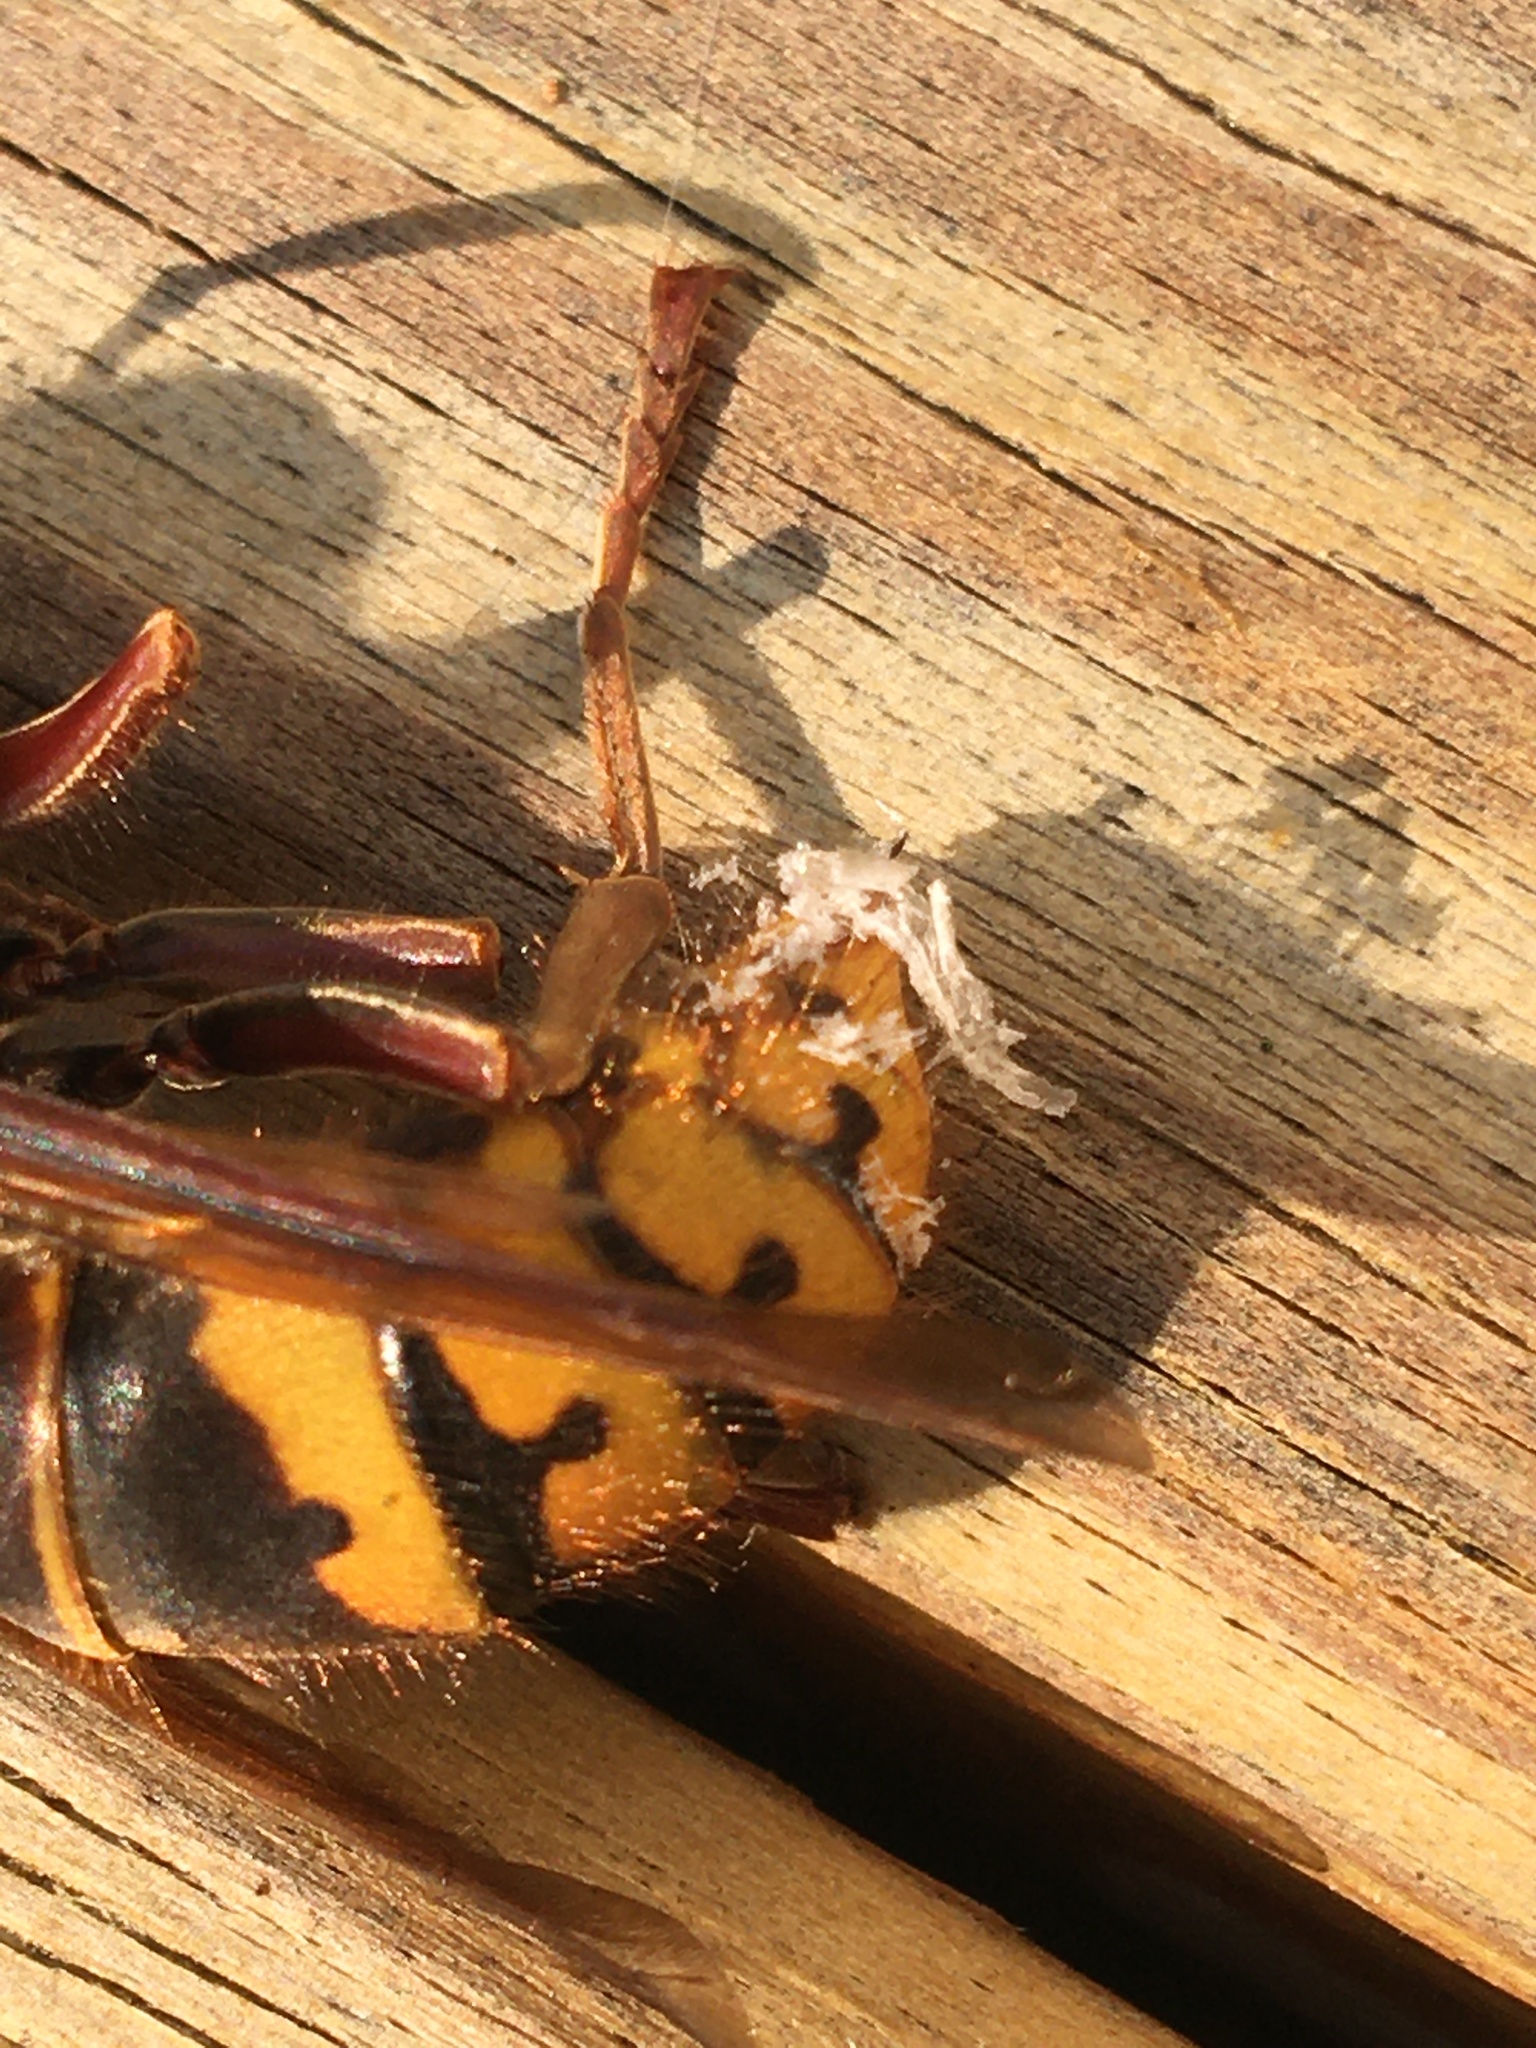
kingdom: Animalia
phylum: Arthropoda
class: Insecta
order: Hymenoptera
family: Vespidae
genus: Vespa
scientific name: Vespa crabro
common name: Hornet
